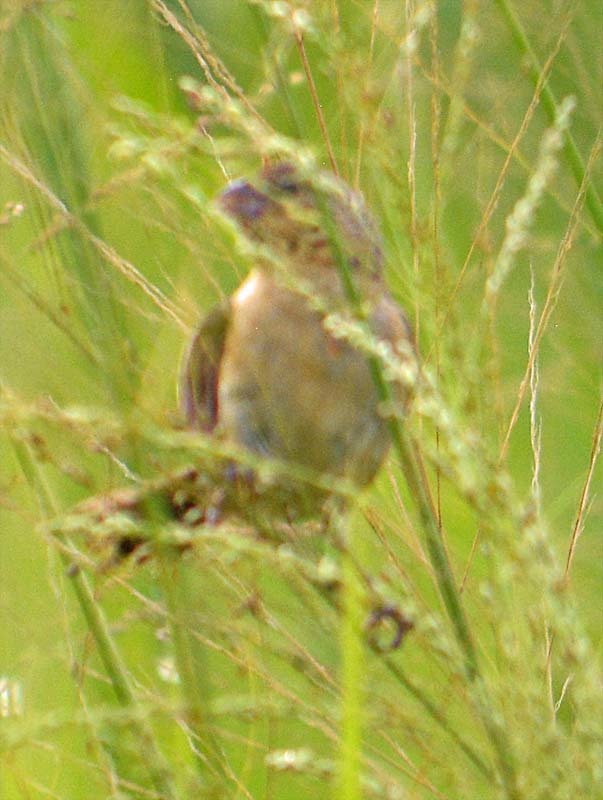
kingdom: Animalia
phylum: Chordata
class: Aves
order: Passeriformes
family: Thraupidae
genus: Sporophila
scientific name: Sporophila morelleti
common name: Morelet's seedeater
